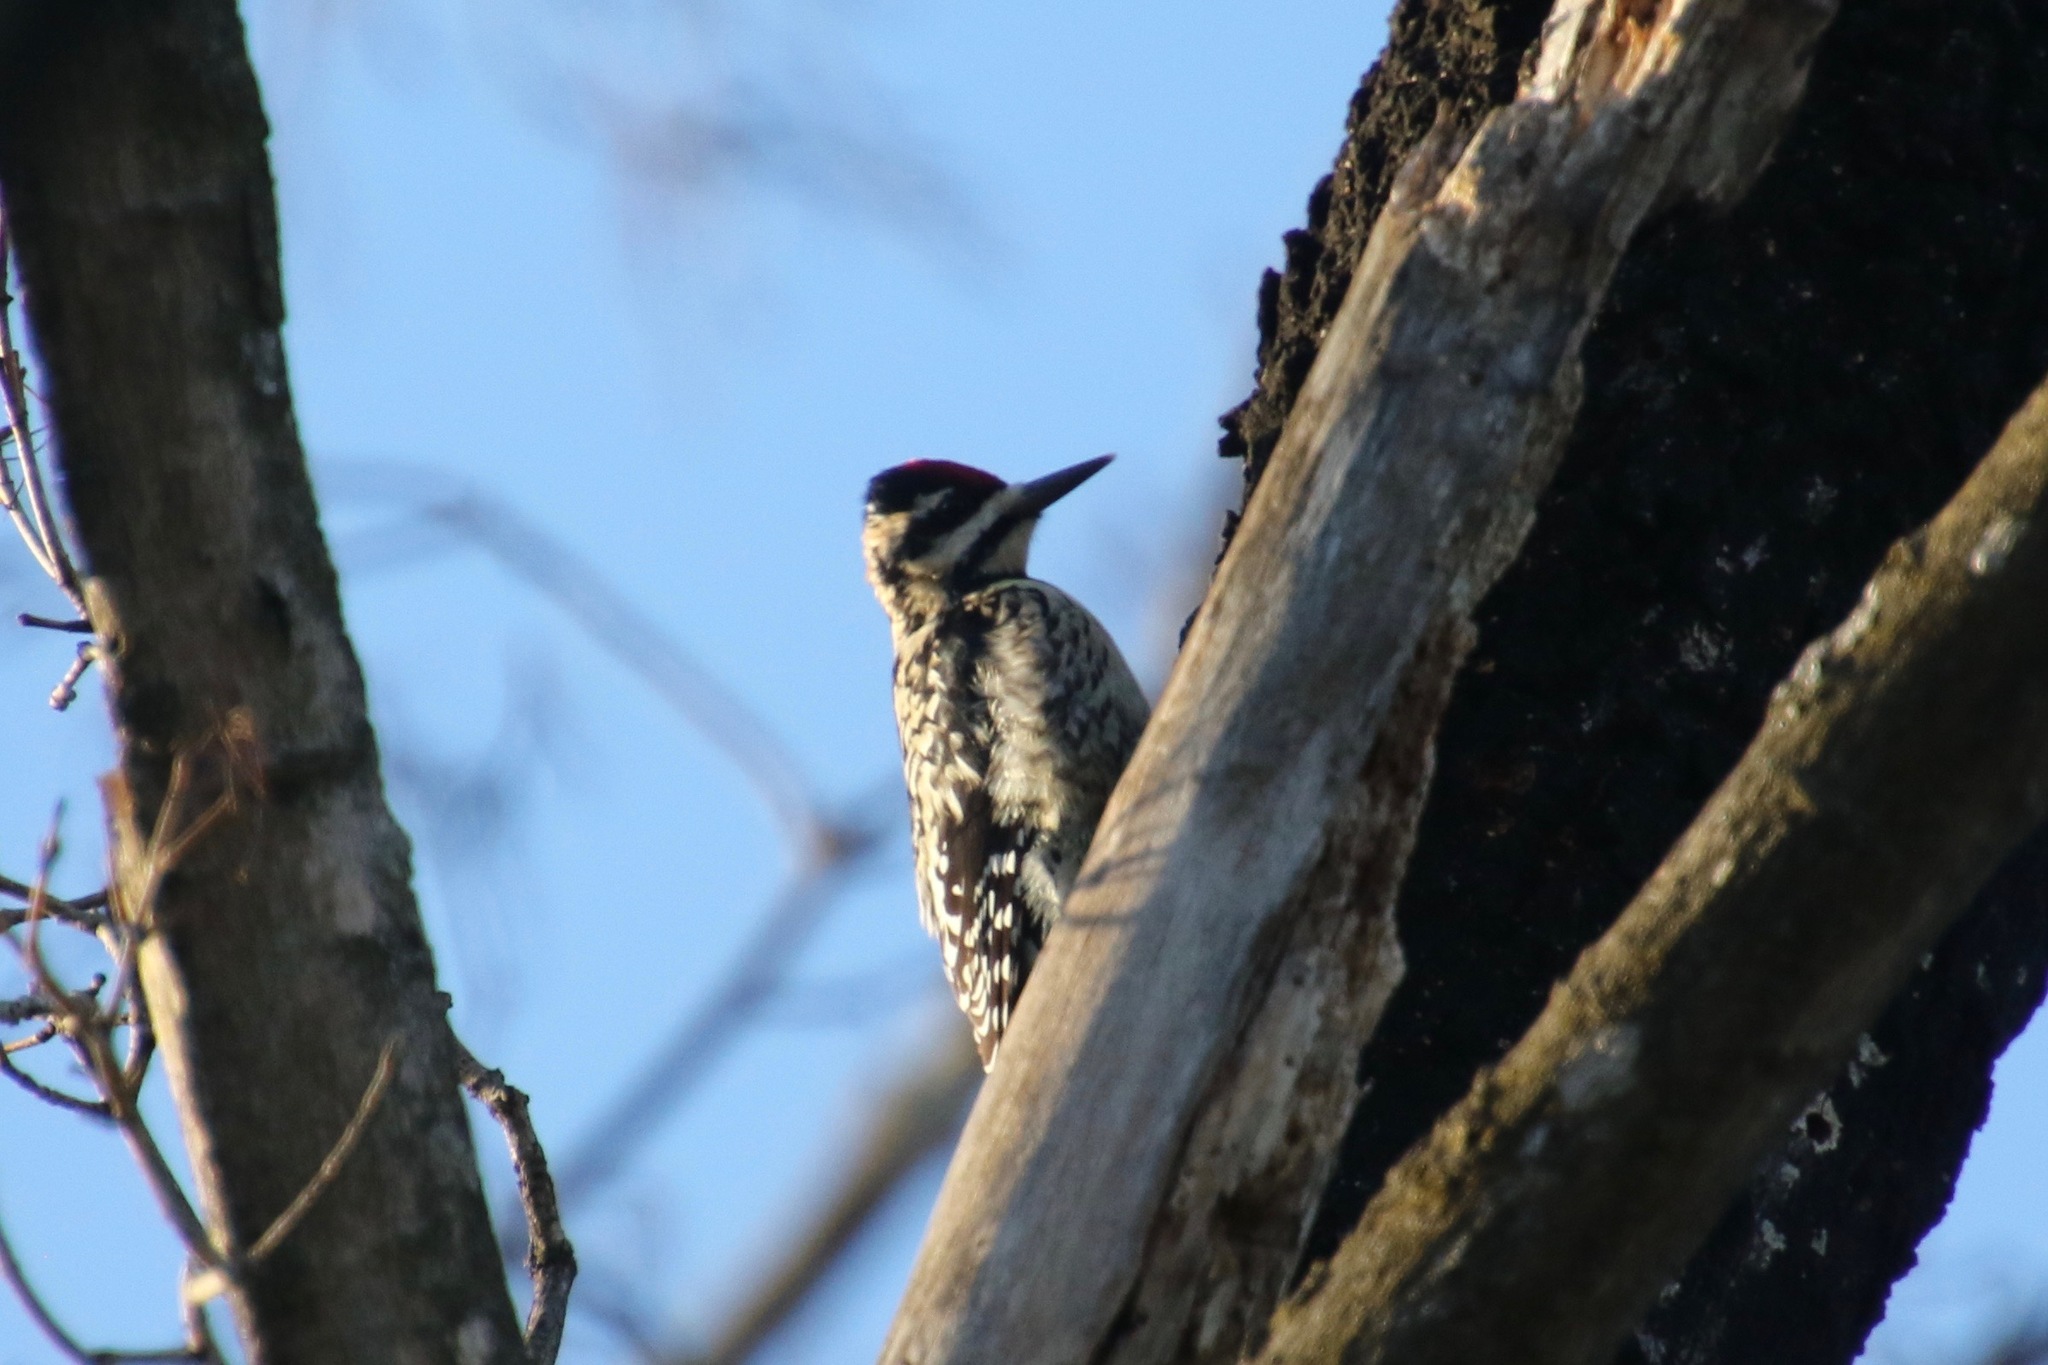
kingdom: Animalia
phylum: Chordata
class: Aves
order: Piciformes
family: Picidae
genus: Sphyrapicus
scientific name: Sphyrapicus varius
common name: Yellow-bellied sapsucker
